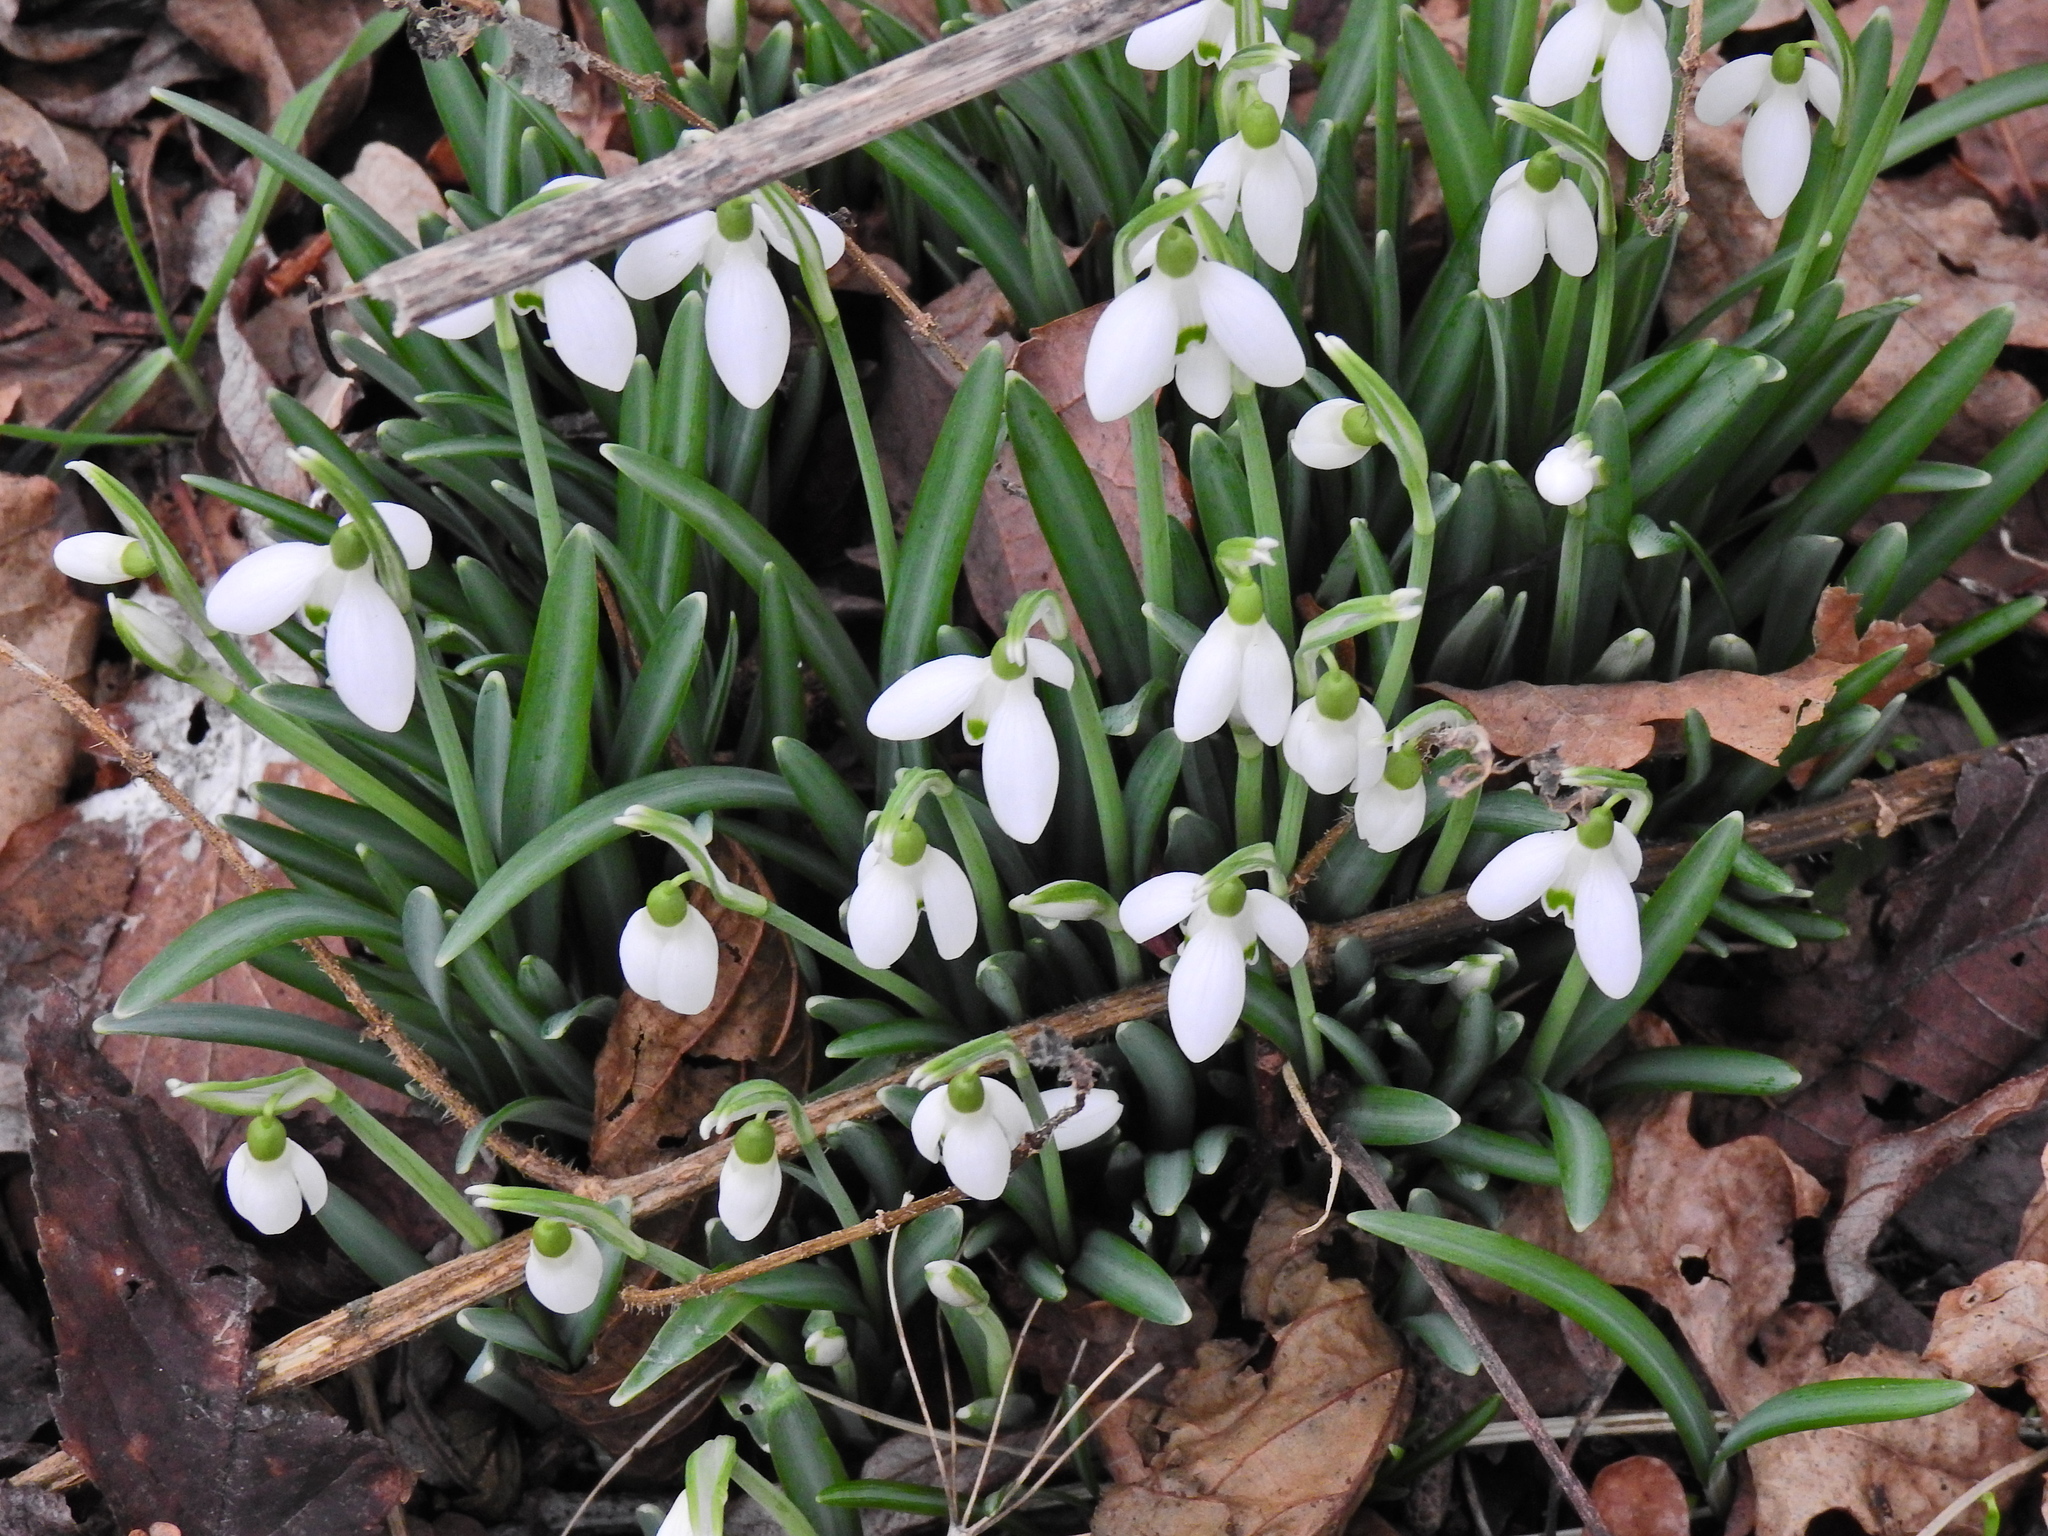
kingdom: Plantae
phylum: Tracheophyta
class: Liliopsida
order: Asparagales
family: Amaryllidaceae
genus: Galanthus
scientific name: Galanthus valentinei
